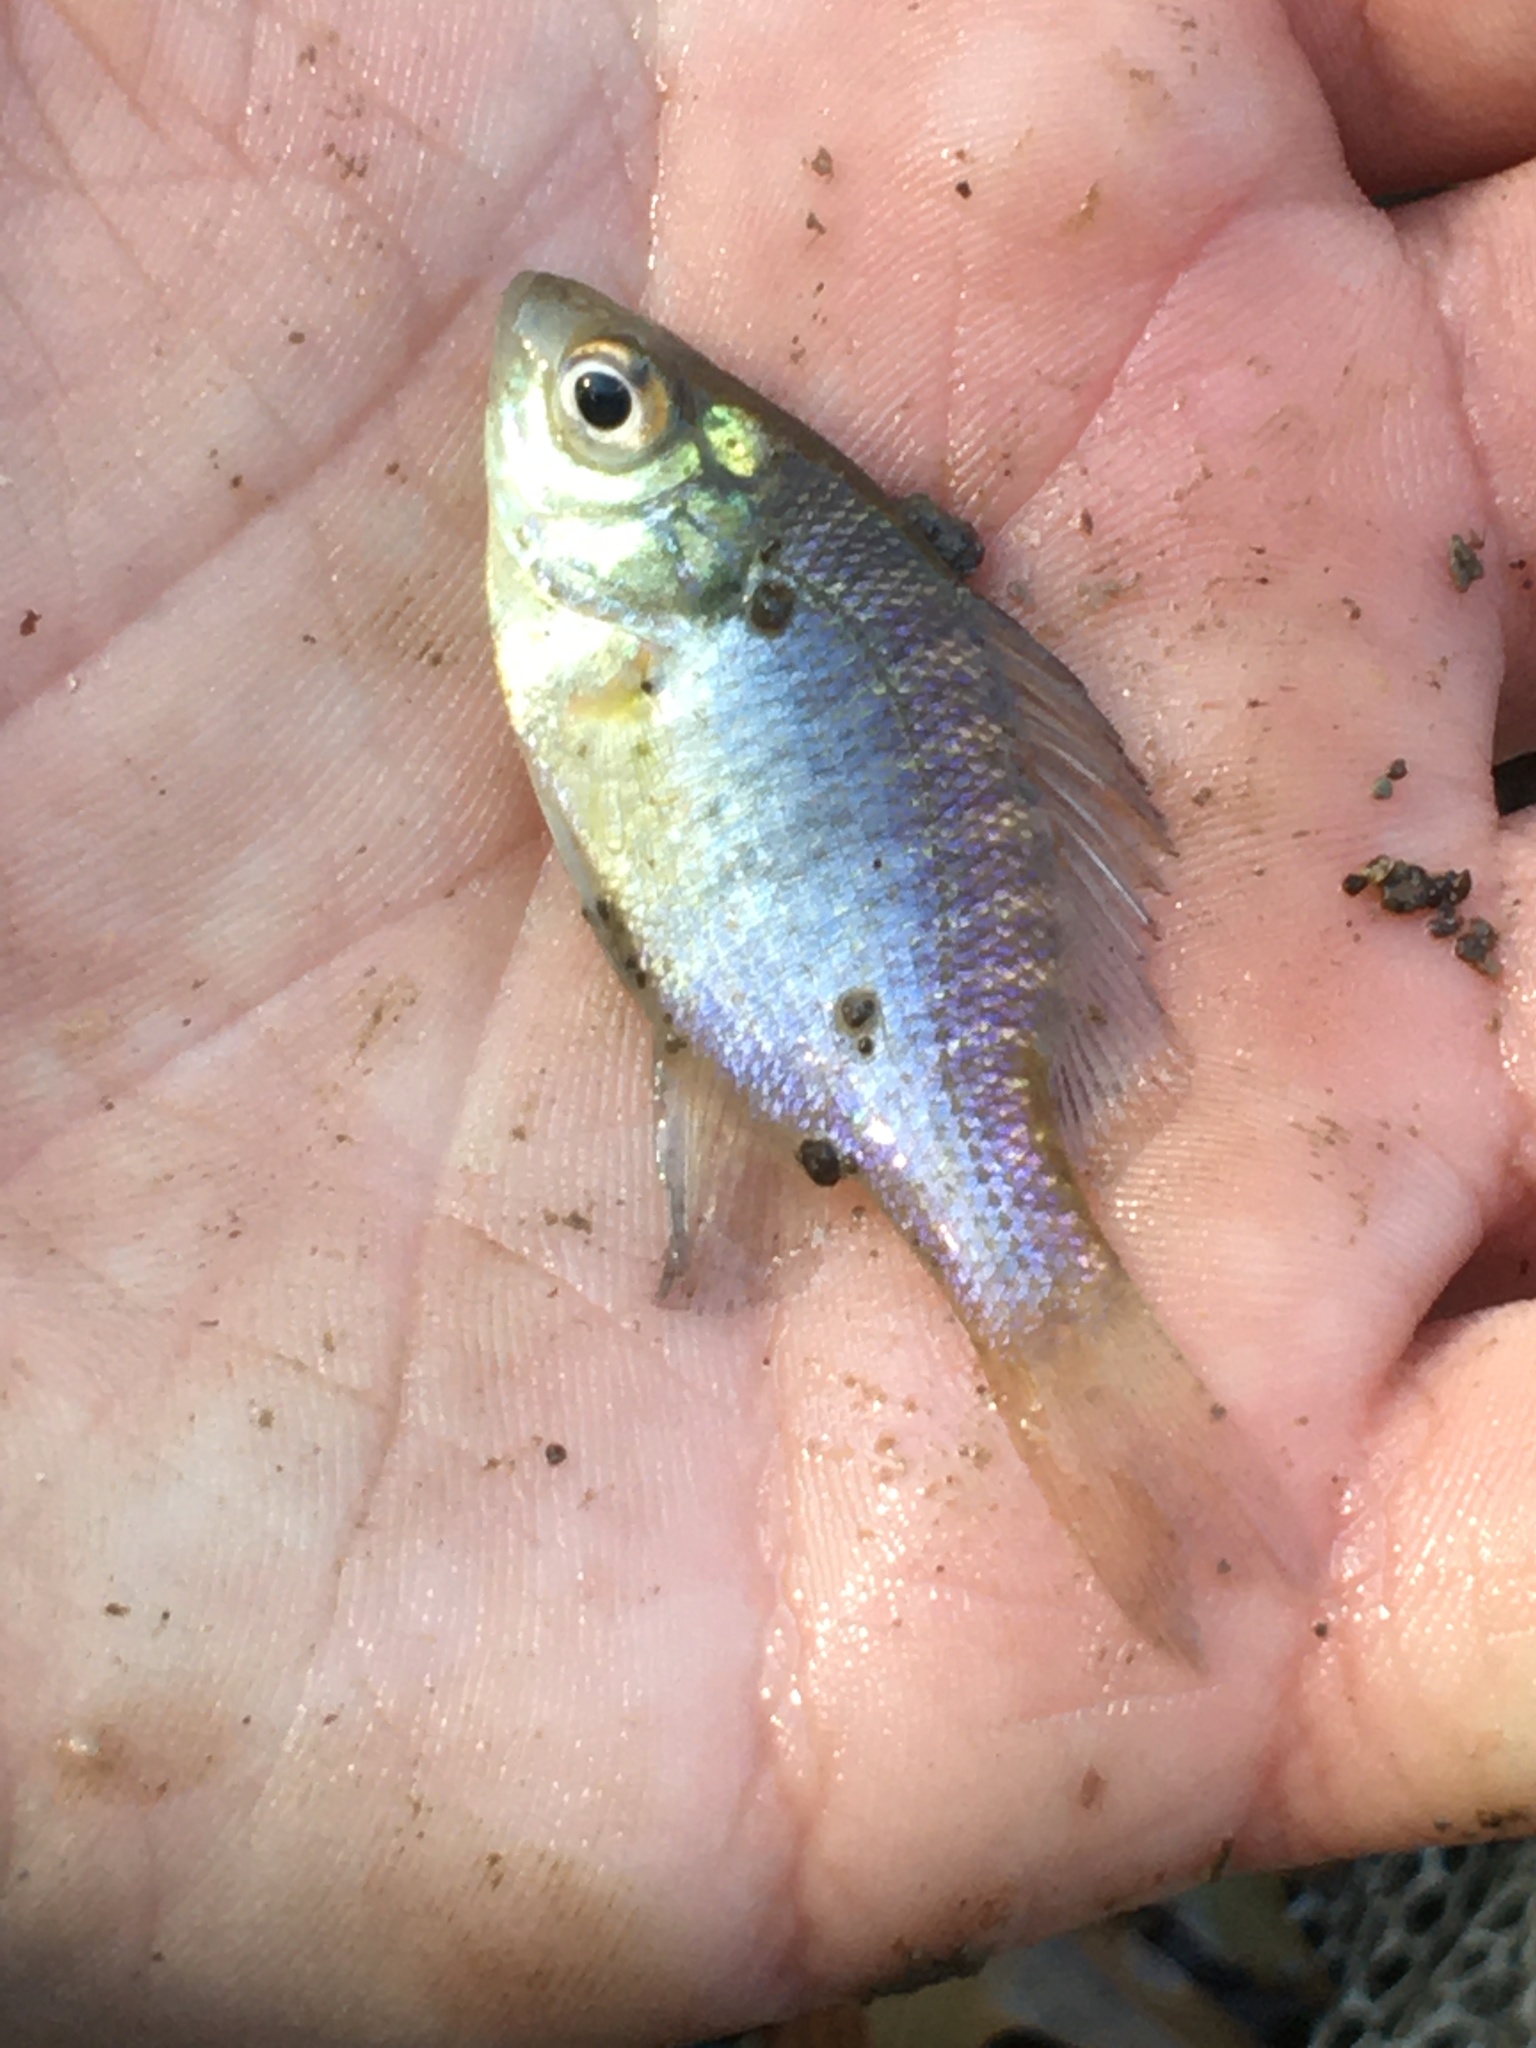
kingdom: Animalia
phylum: Chordata
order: Perciformes
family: Centrarchidae
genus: Lepomis
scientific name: Lepomis macrochirus
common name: Bluegill
